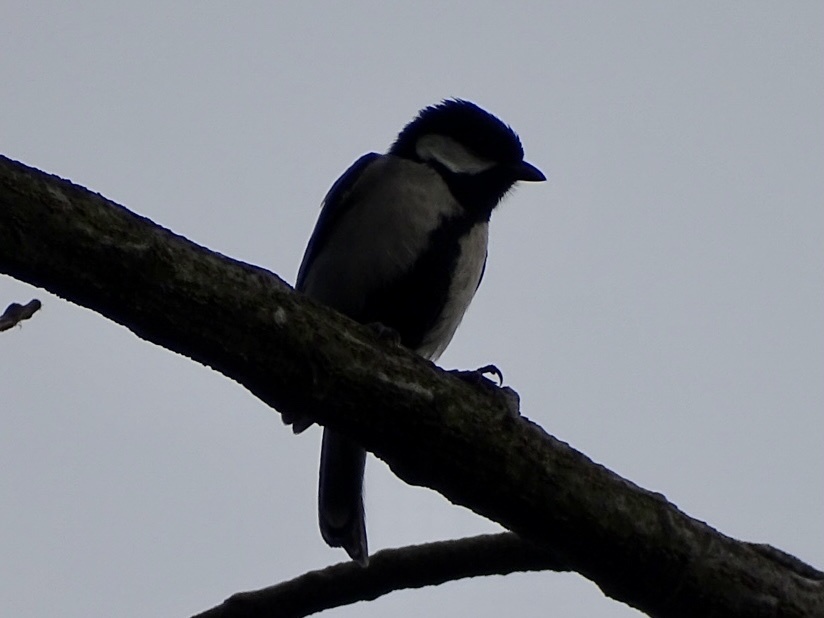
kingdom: Animalia
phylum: Chordata
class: Aves
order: Passeriformes
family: Paridae
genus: Parus
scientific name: Parus minor
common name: Japanese tit
